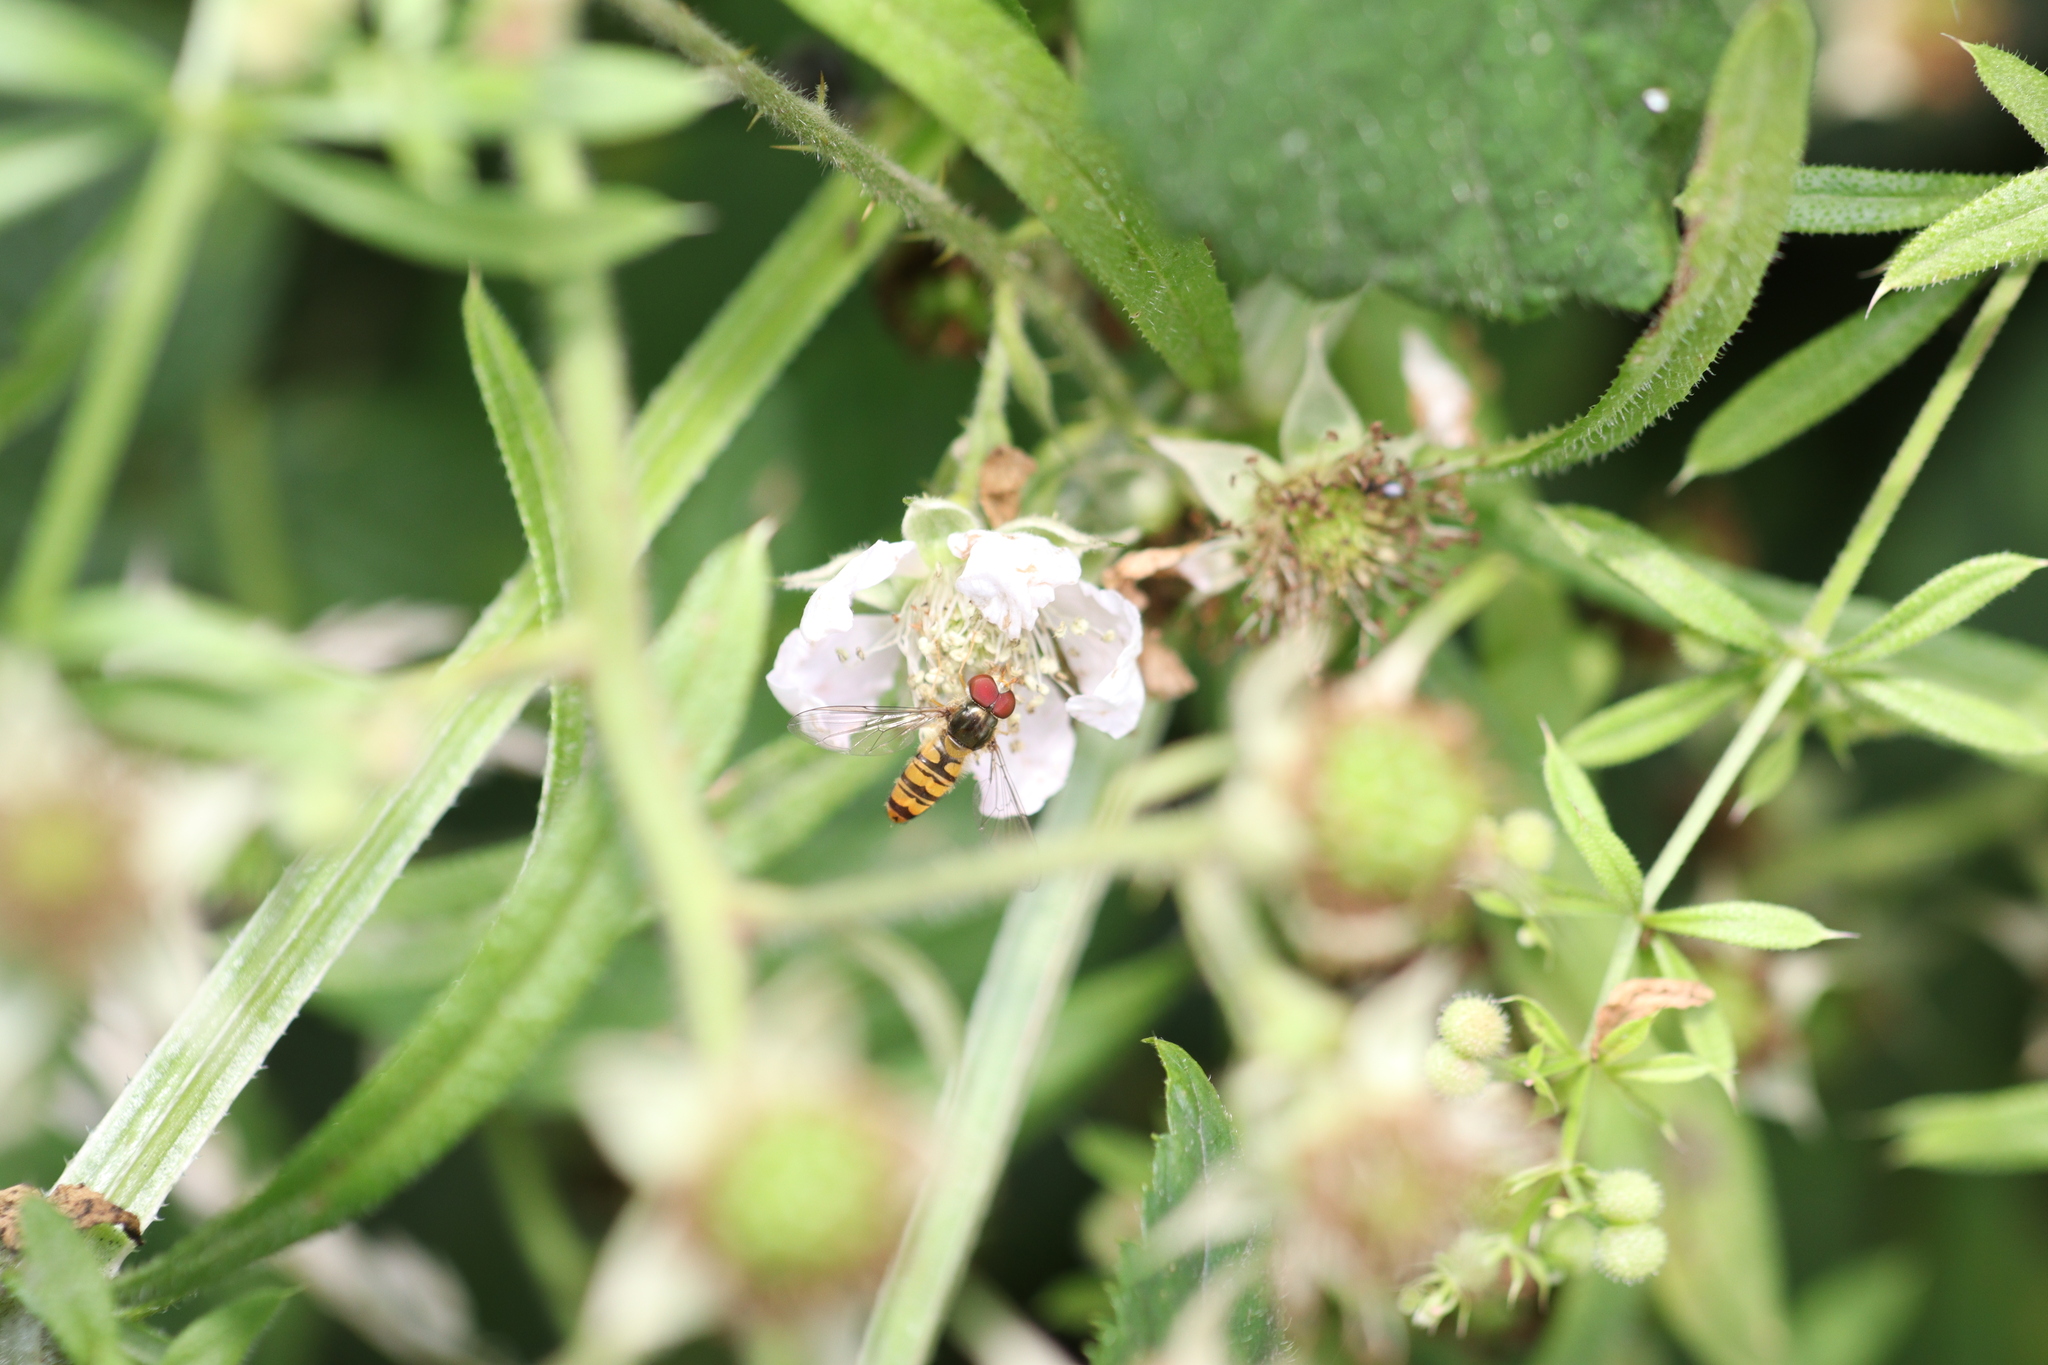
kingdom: Animalia
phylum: Arthropoda
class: Insecta
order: Diptera
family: Syrphidae
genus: Episyrphus
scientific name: Episyrphus balteatus
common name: Marmalade hoverfly
